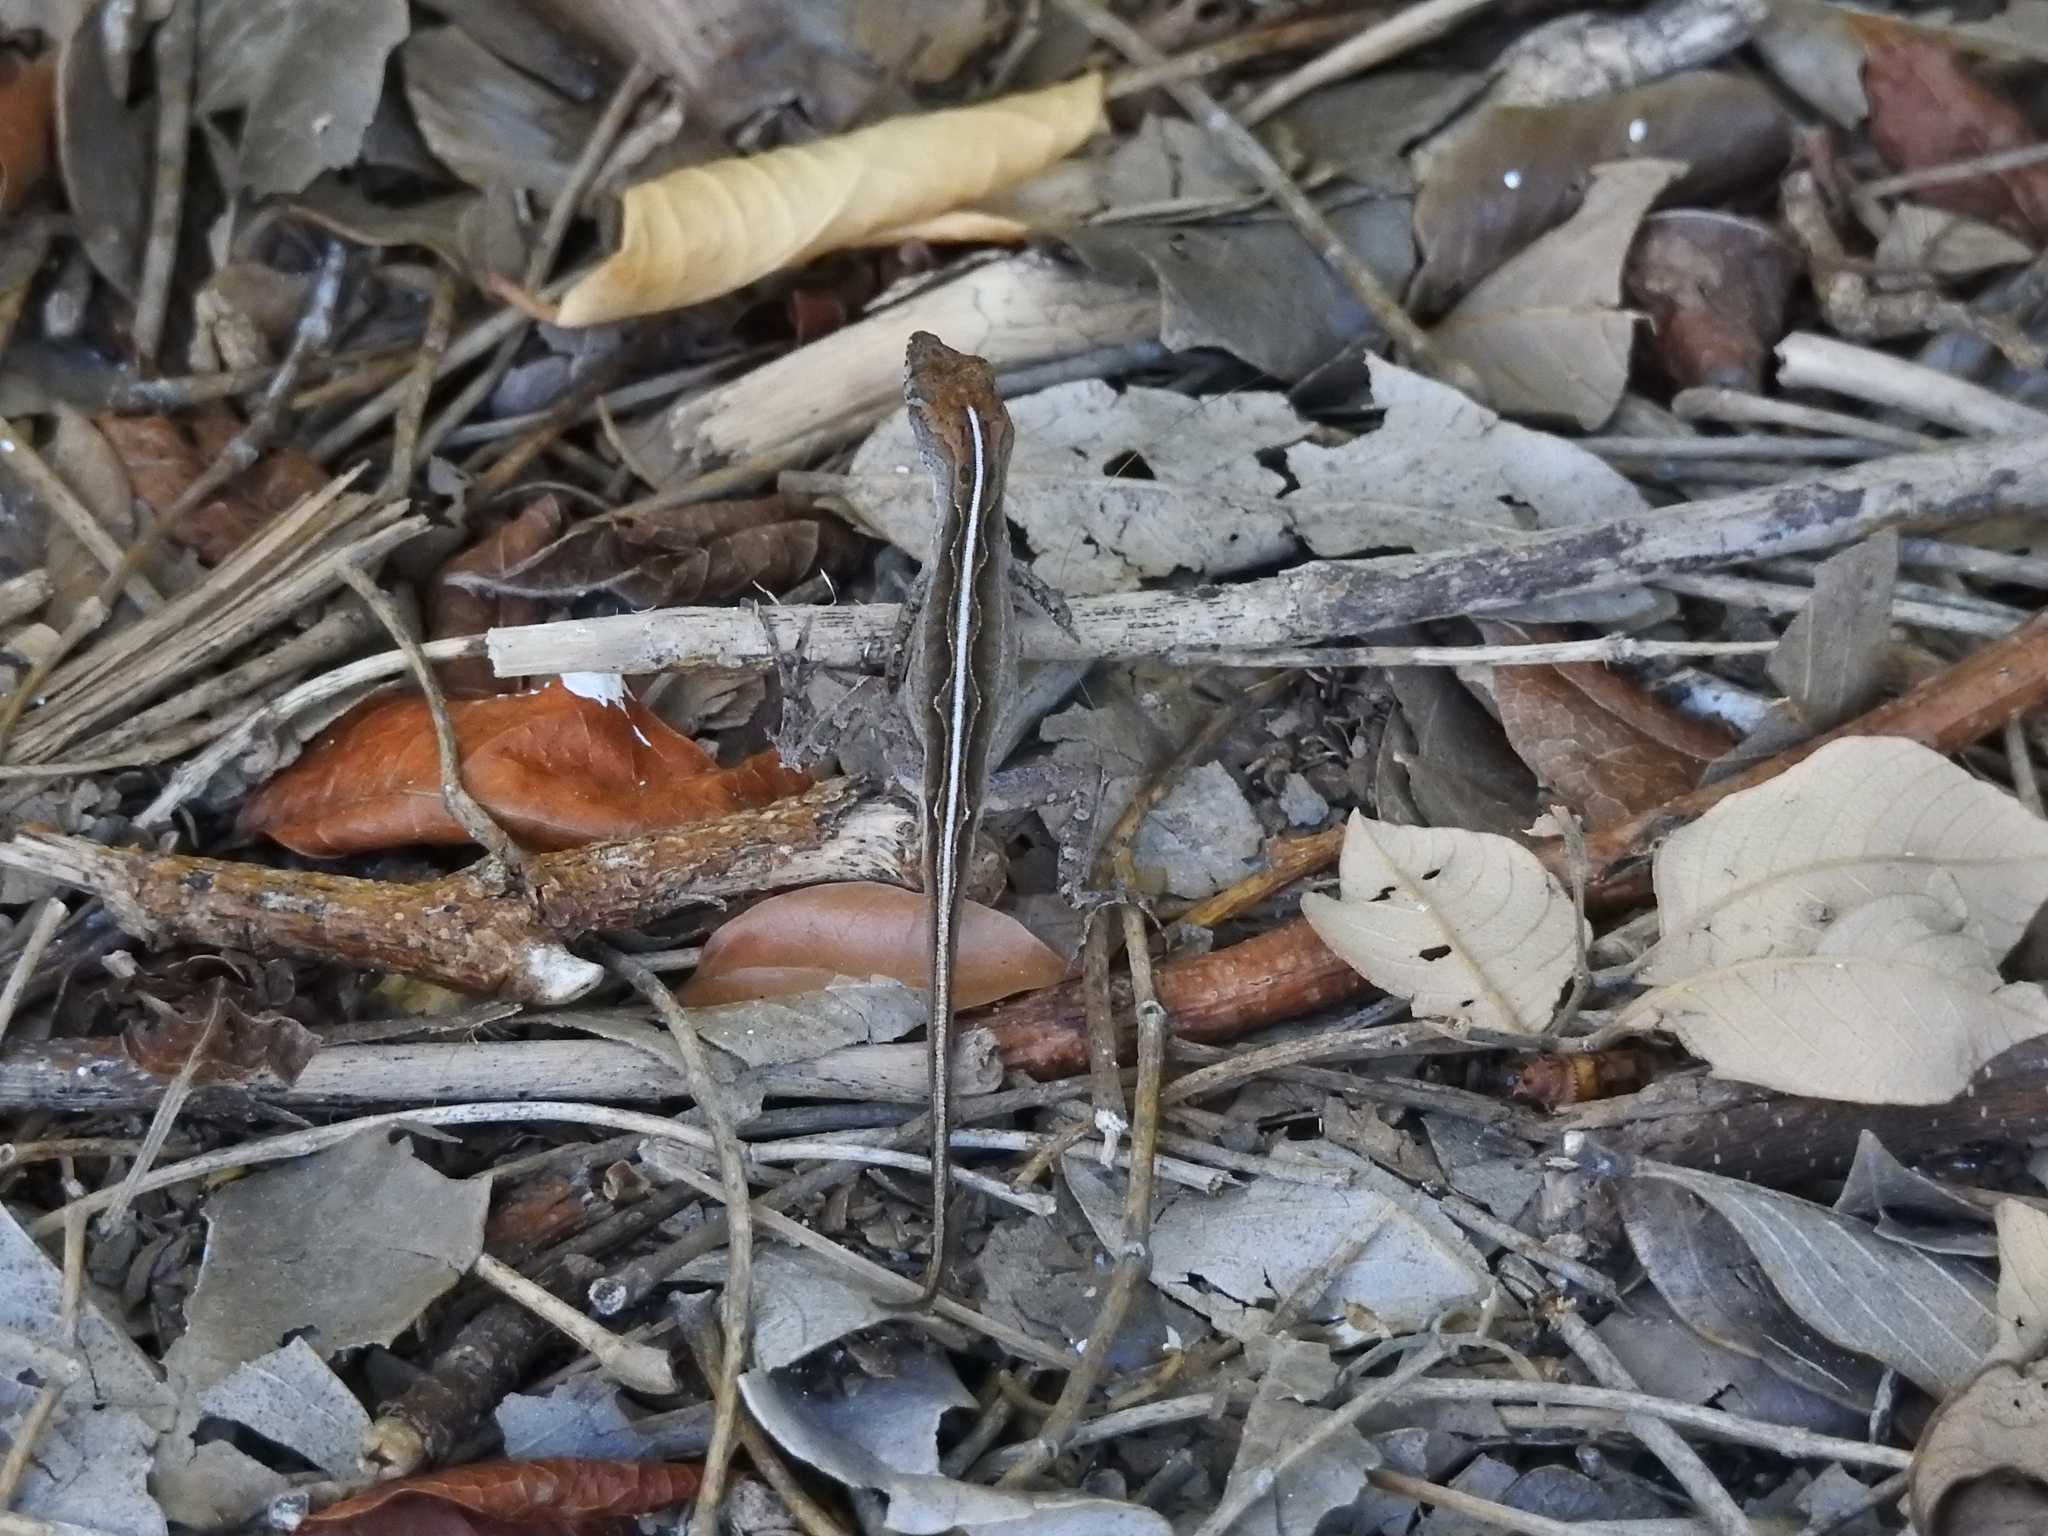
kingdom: Animalia
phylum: Chordata
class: Squamata
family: Dactyloidae
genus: Anolis
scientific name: Anolis sagrei
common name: Brown anole
